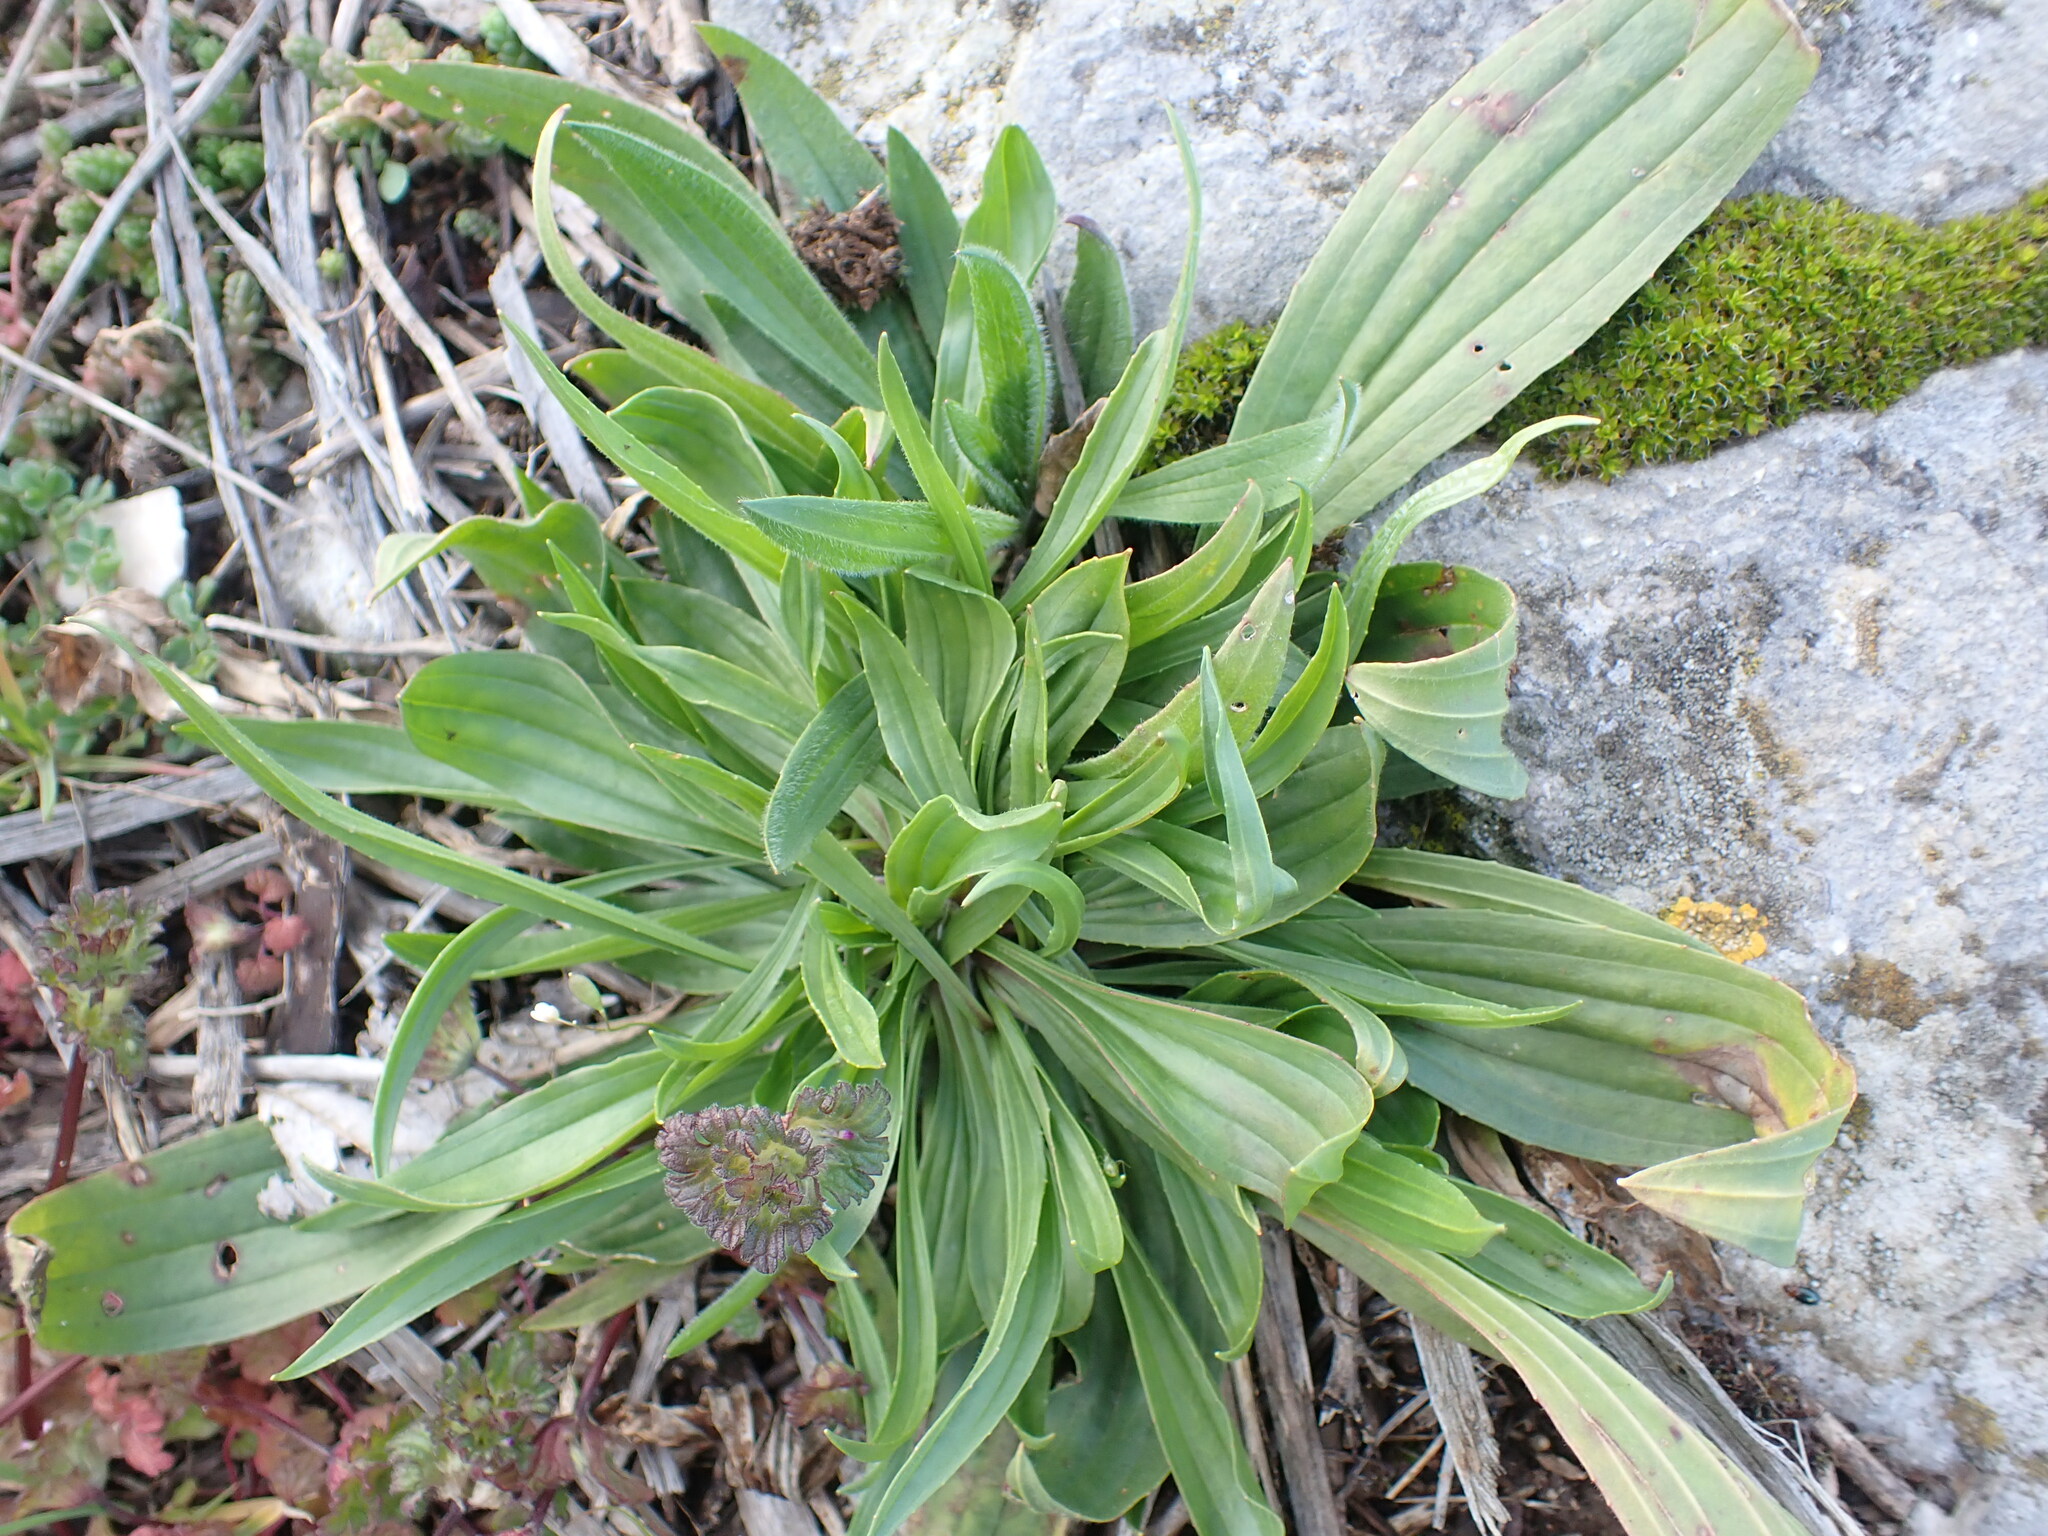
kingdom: Plantae
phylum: Tracheophyta
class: Magnoliopsida
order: Lamiales
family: Plantaginaceae
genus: Plantago
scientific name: Plantago lanceolata
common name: Ribwort plantain
